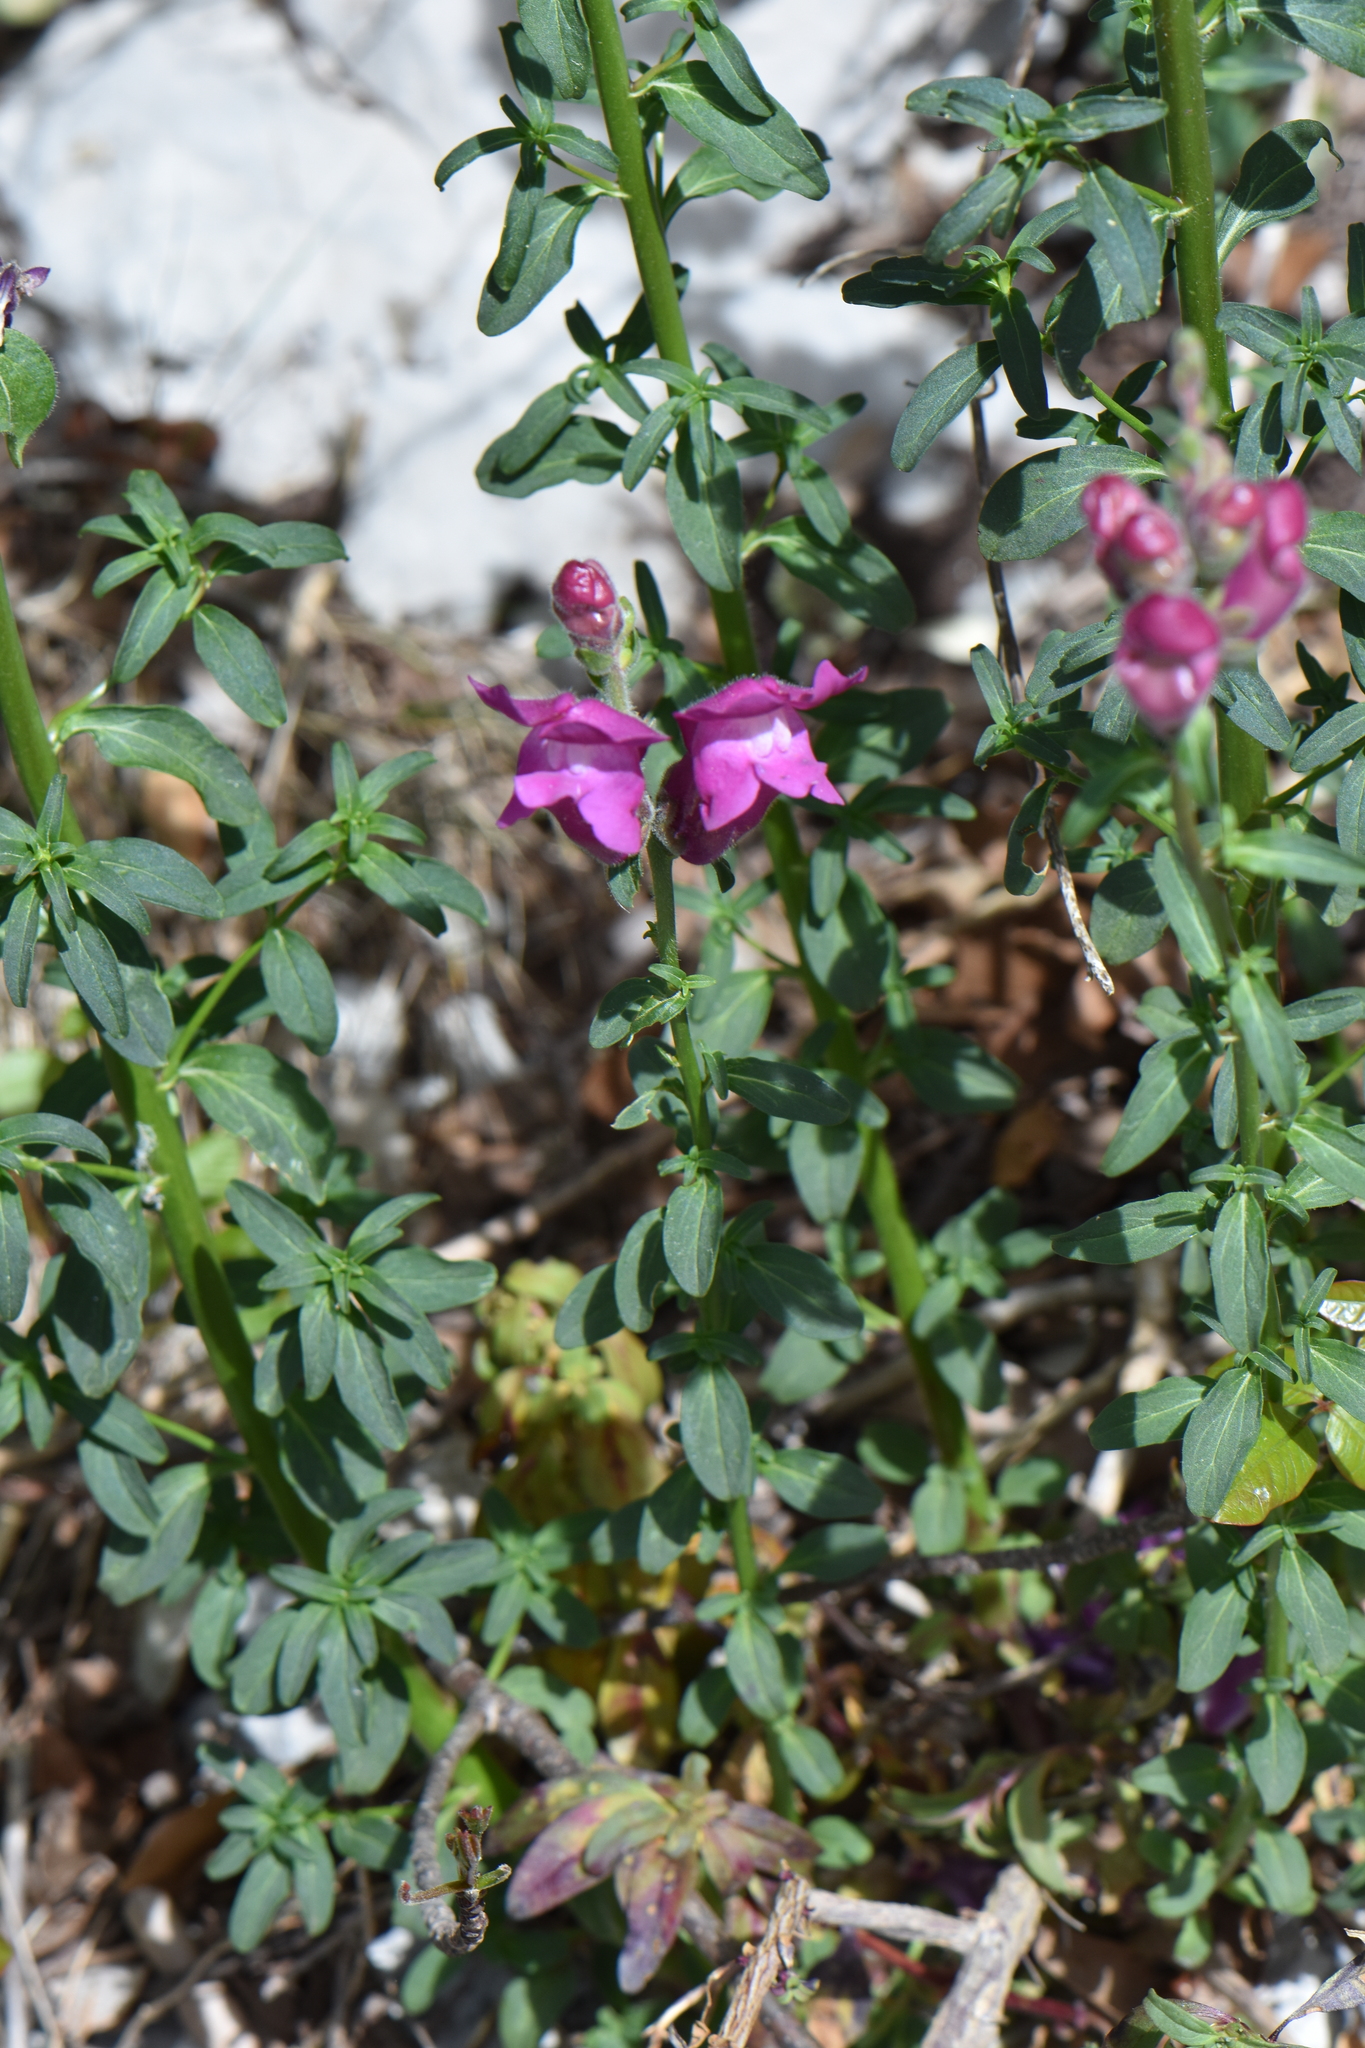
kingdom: Plantae
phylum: Tracheophyta
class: Magnoliopsida
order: Lamiales
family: Plantaginaceae
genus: Antirrhinum
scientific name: Antirrhinum majus
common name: Snapdragon
